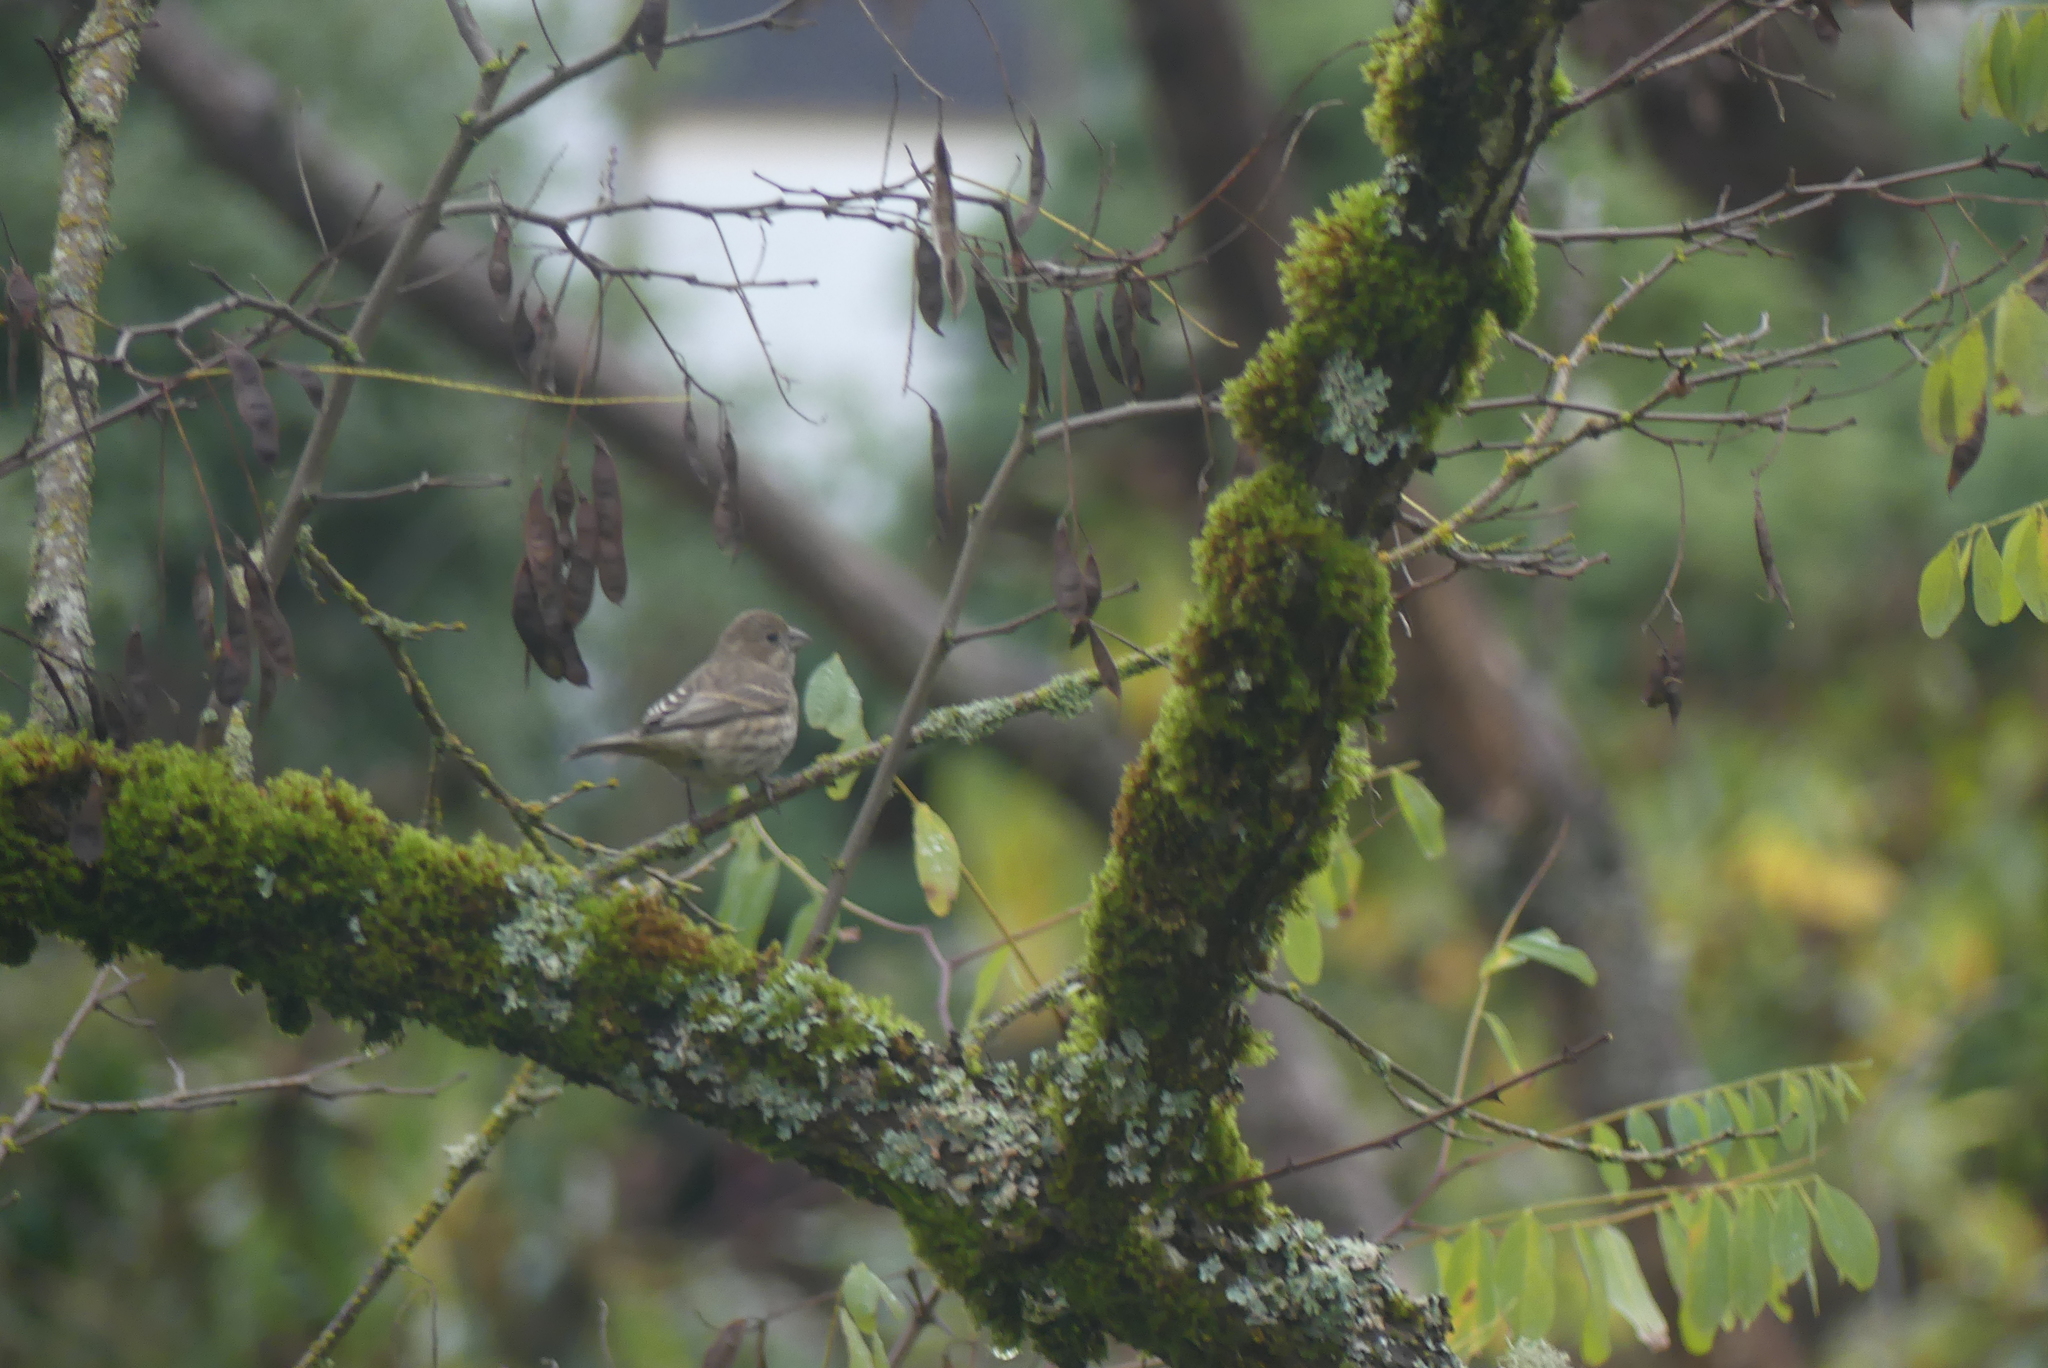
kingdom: Animalia
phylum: Chordata
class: Aves
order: Passeriformes
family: Fringillidae
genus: Haemorhous
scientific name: Haemorhous mexicanus
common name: House finch
